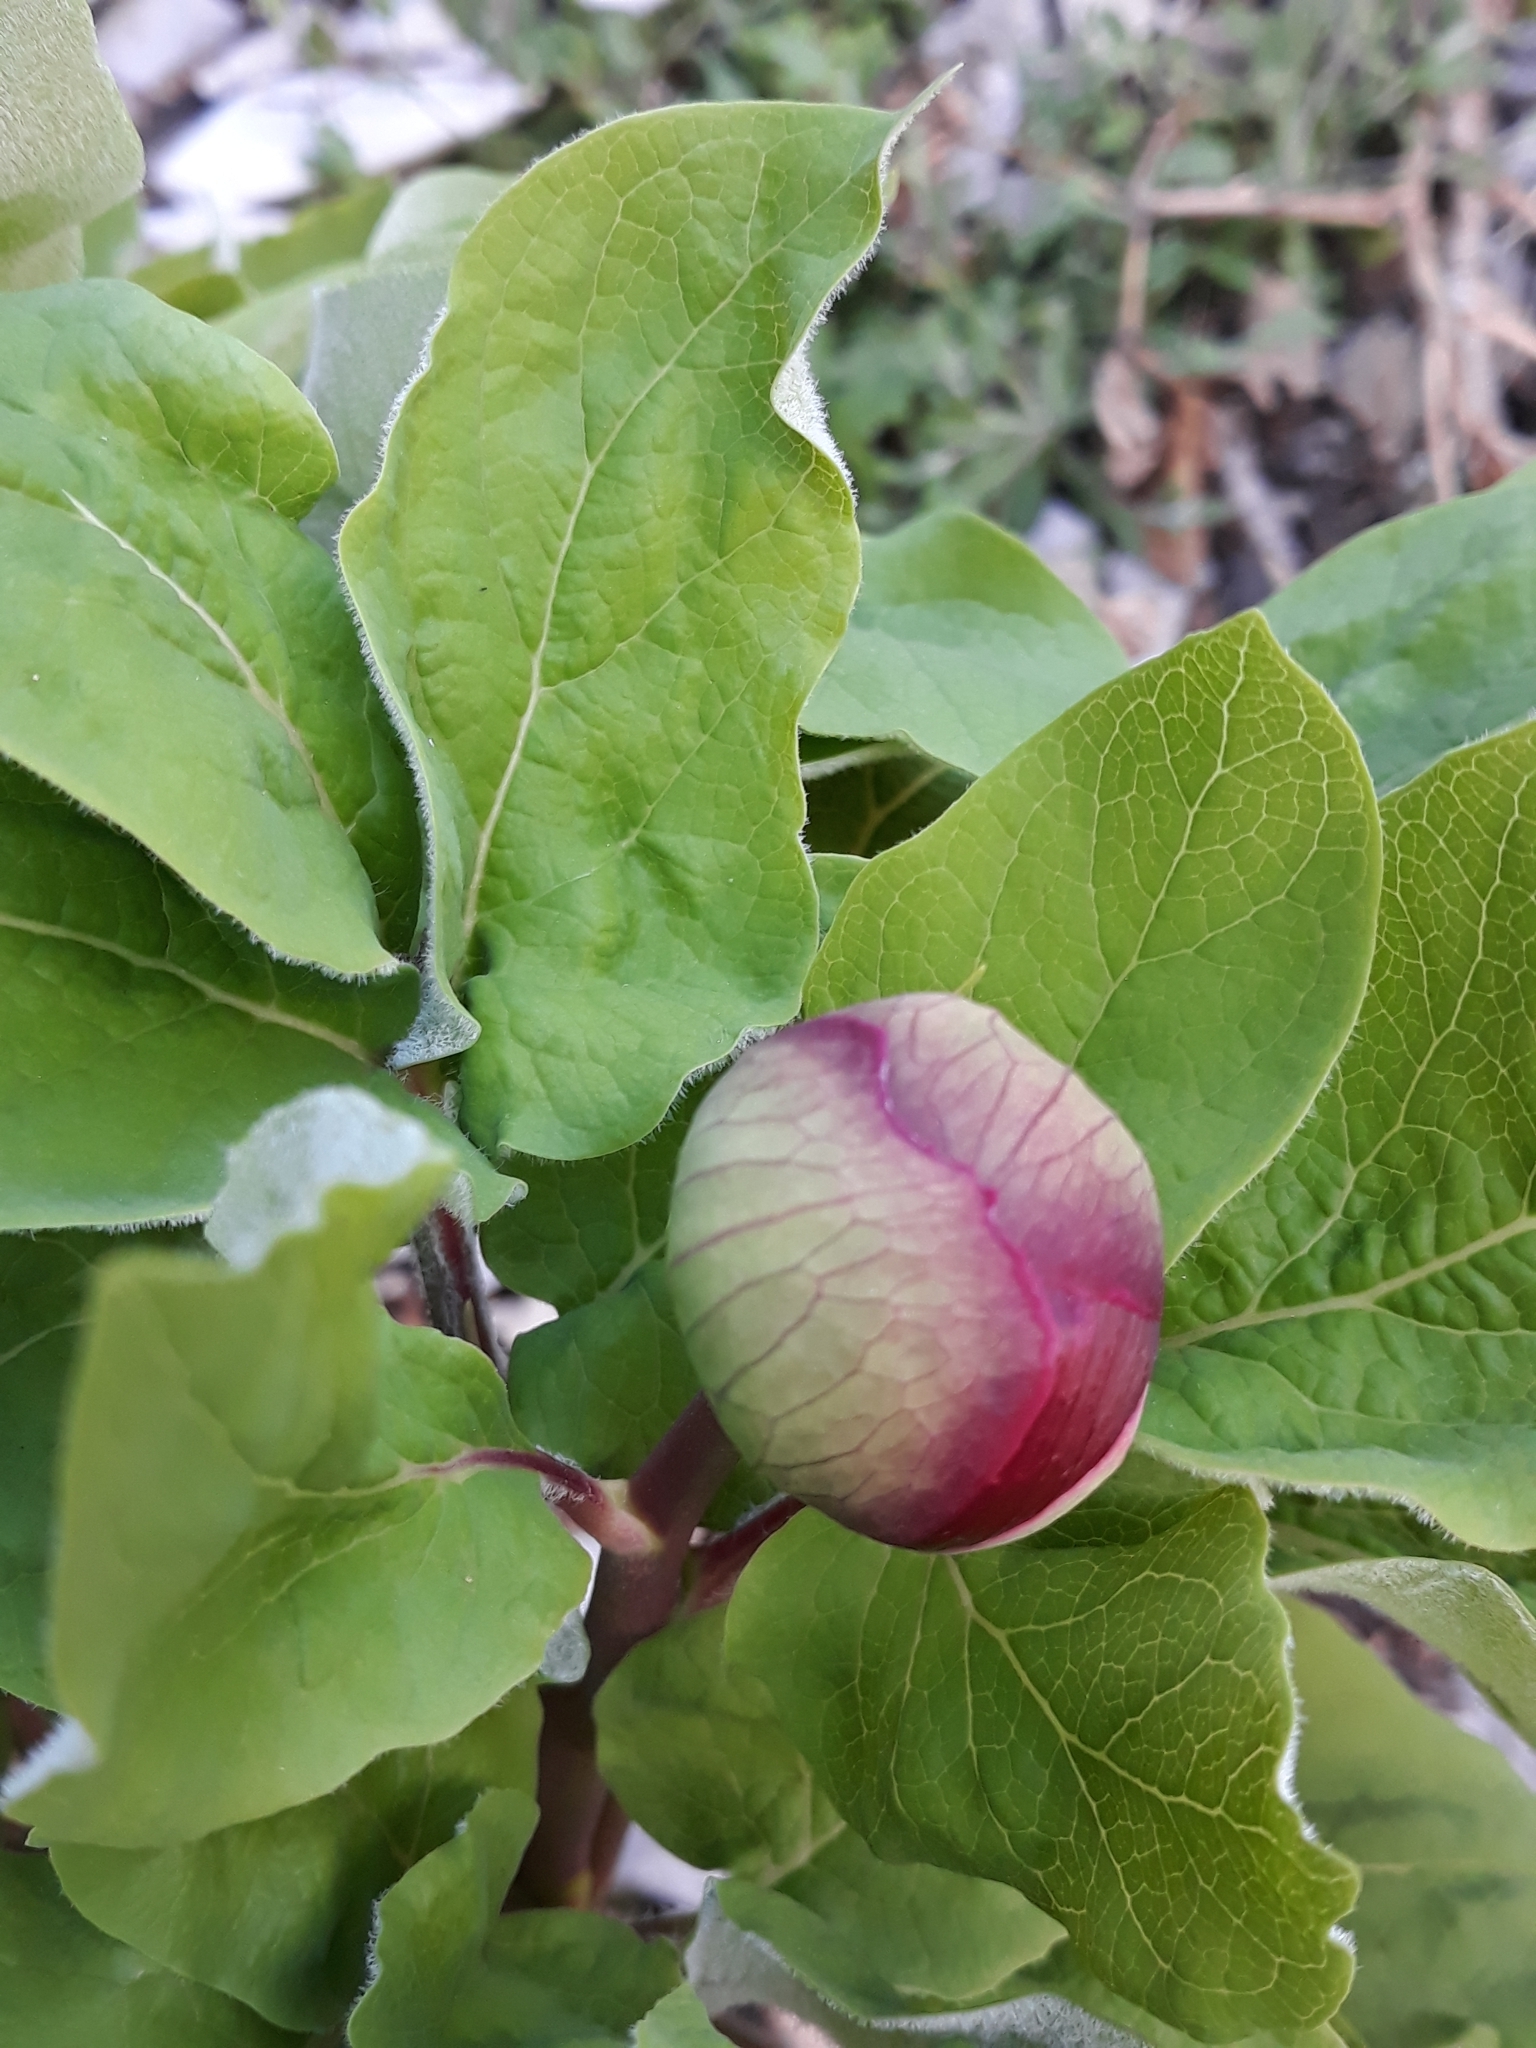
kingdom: Plantae
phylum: Tracheophyta
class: Magnoliopsida
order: Saxifragales
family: Paeoniaceae
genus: Paeonia
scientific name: Paeonia algeriensis
